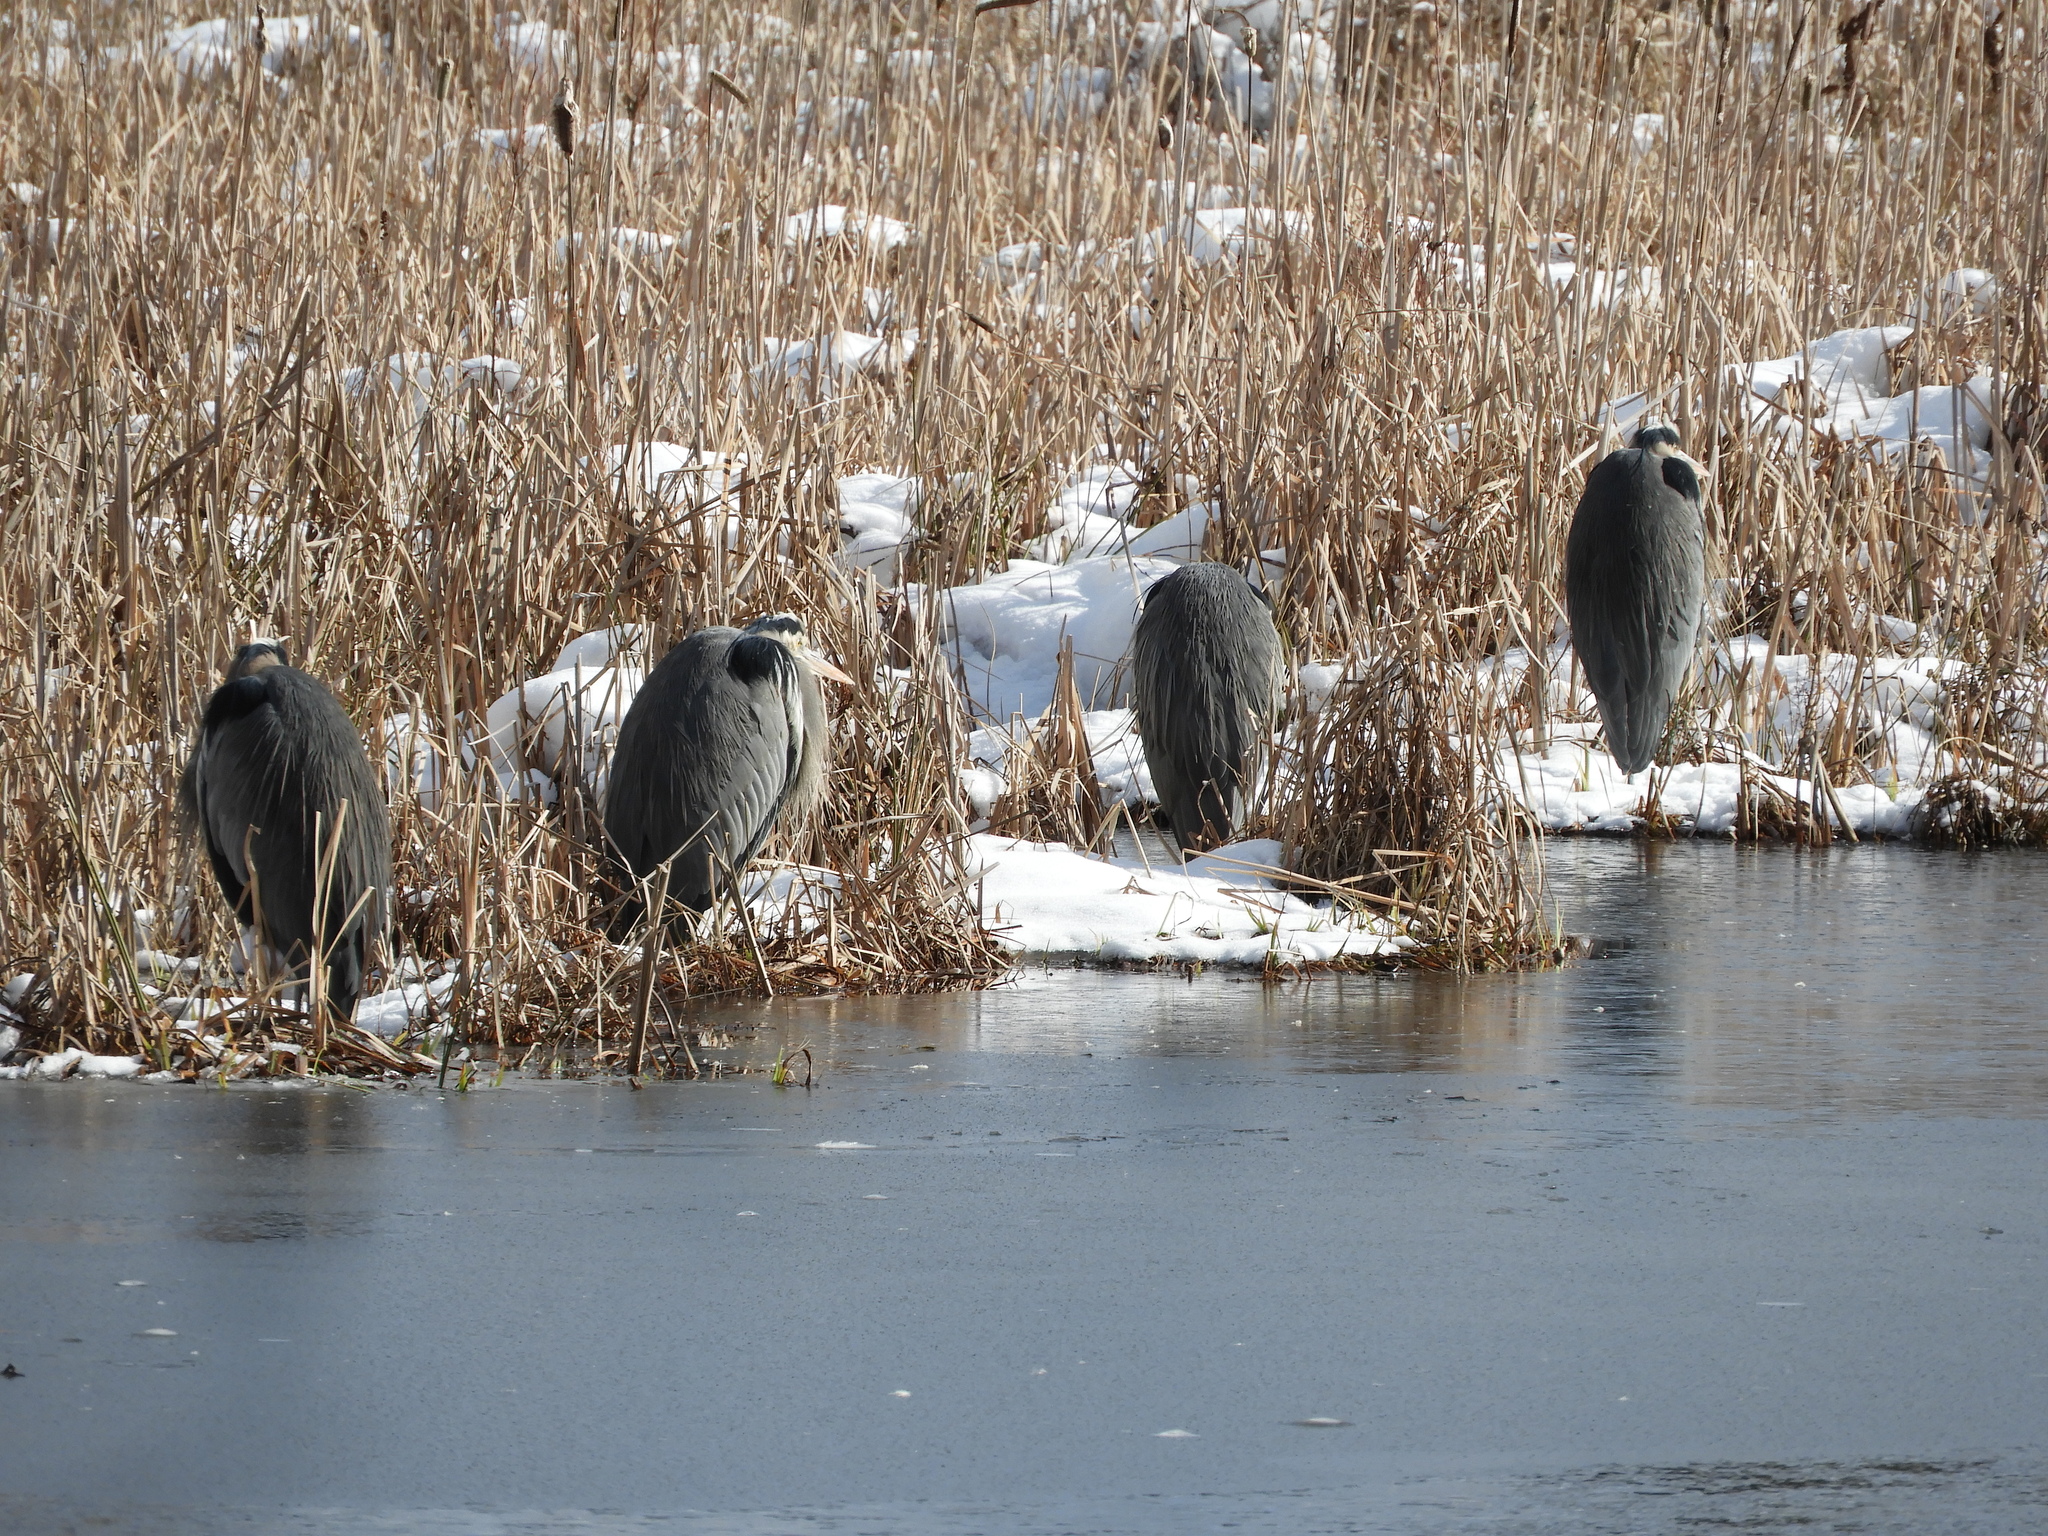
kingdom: Animalia
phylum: Chordata
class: Aves
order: Pelecaniformes
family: Ardeidae
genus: Ardea
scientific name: Ardea herodias
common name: Great blue heron
